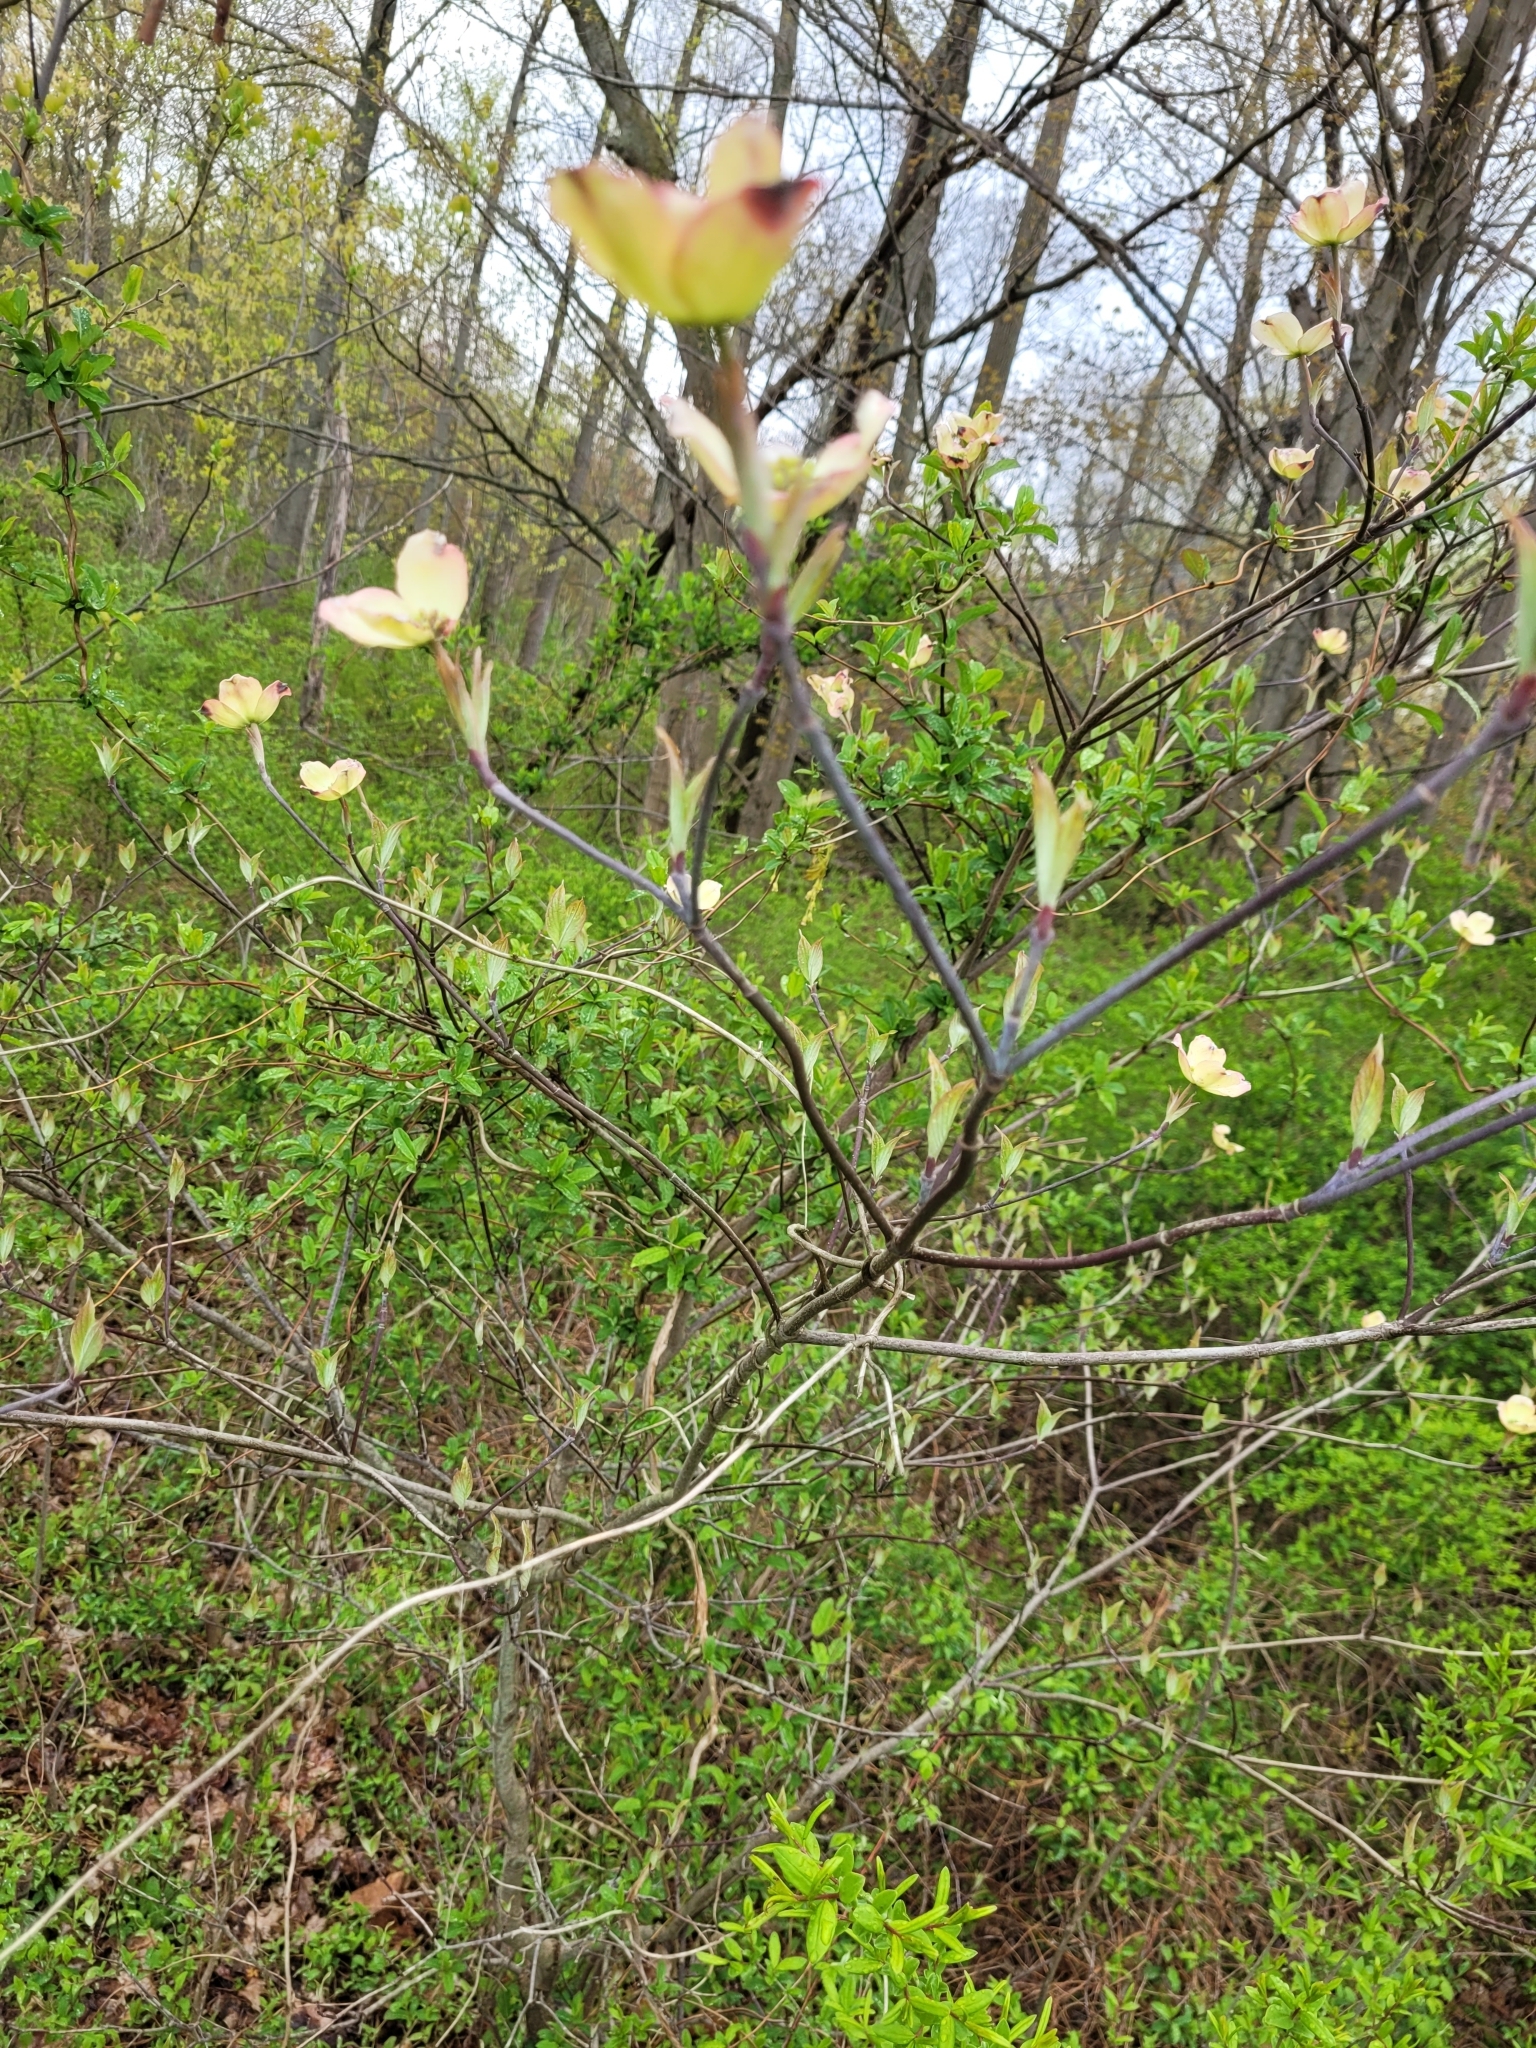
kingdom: Plantae
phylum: Tracheophyta
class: Magnoliopsida
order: Cornales
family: Cornaceae
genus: Cornus
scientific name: Cornus florida
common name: Flowering dogwood
